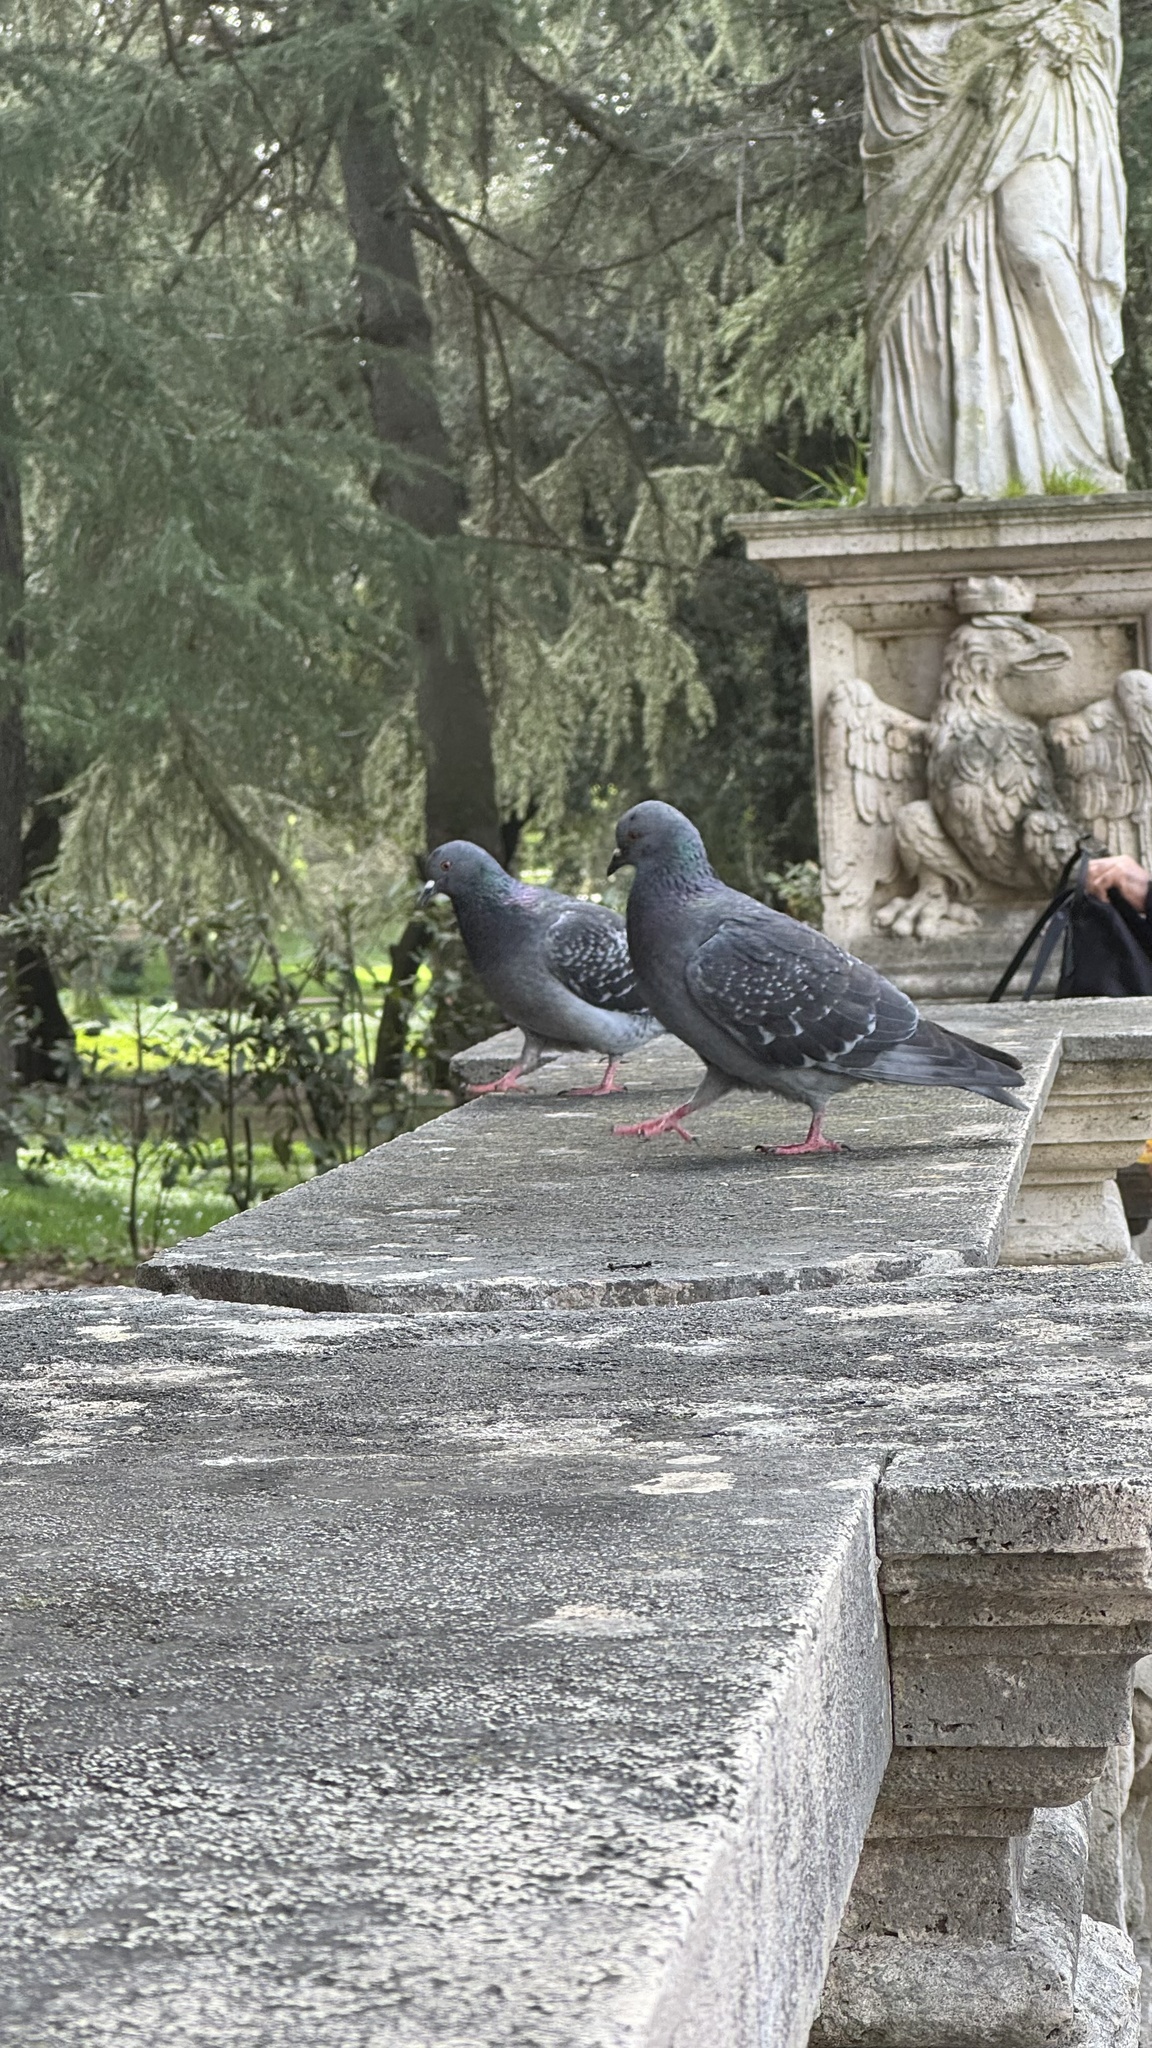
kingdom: Animalia
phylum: Chordata
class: Aves
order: Columbiformes
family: Columbidae
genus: Columba
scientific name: Columba livia
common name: Rock pigeon
